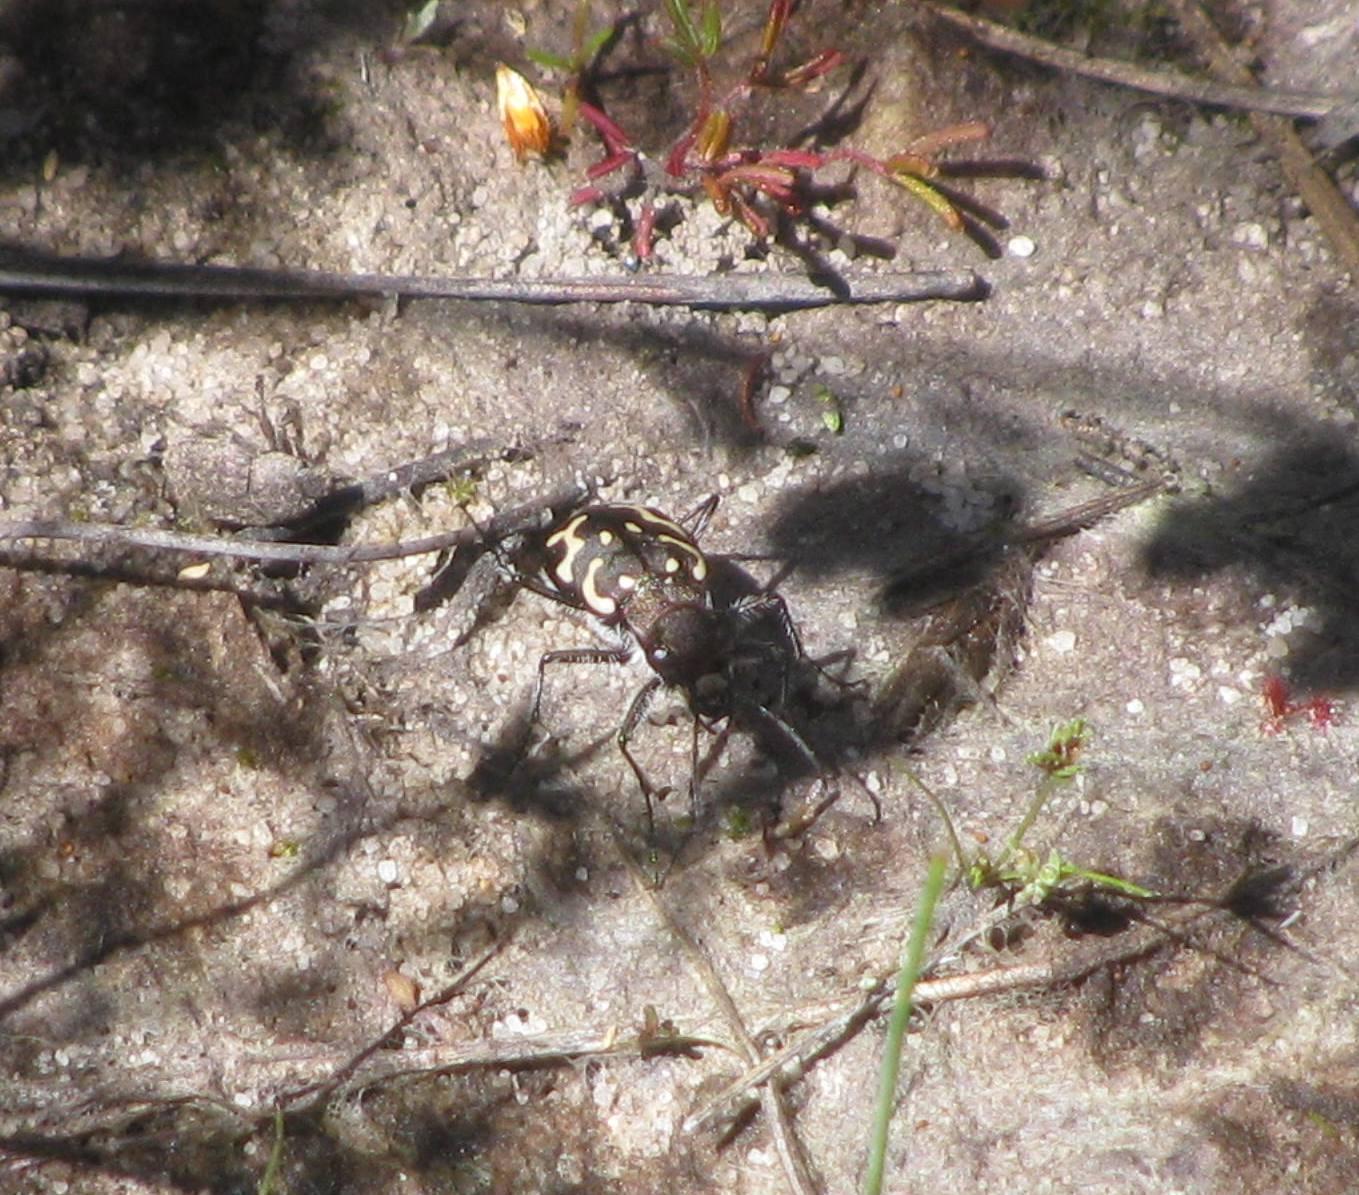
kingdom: Animalia
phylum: Arthropoda
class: Insecta
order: Coleoptera
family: Carabidae
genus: Cicindela
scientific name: Cicindela lurida
